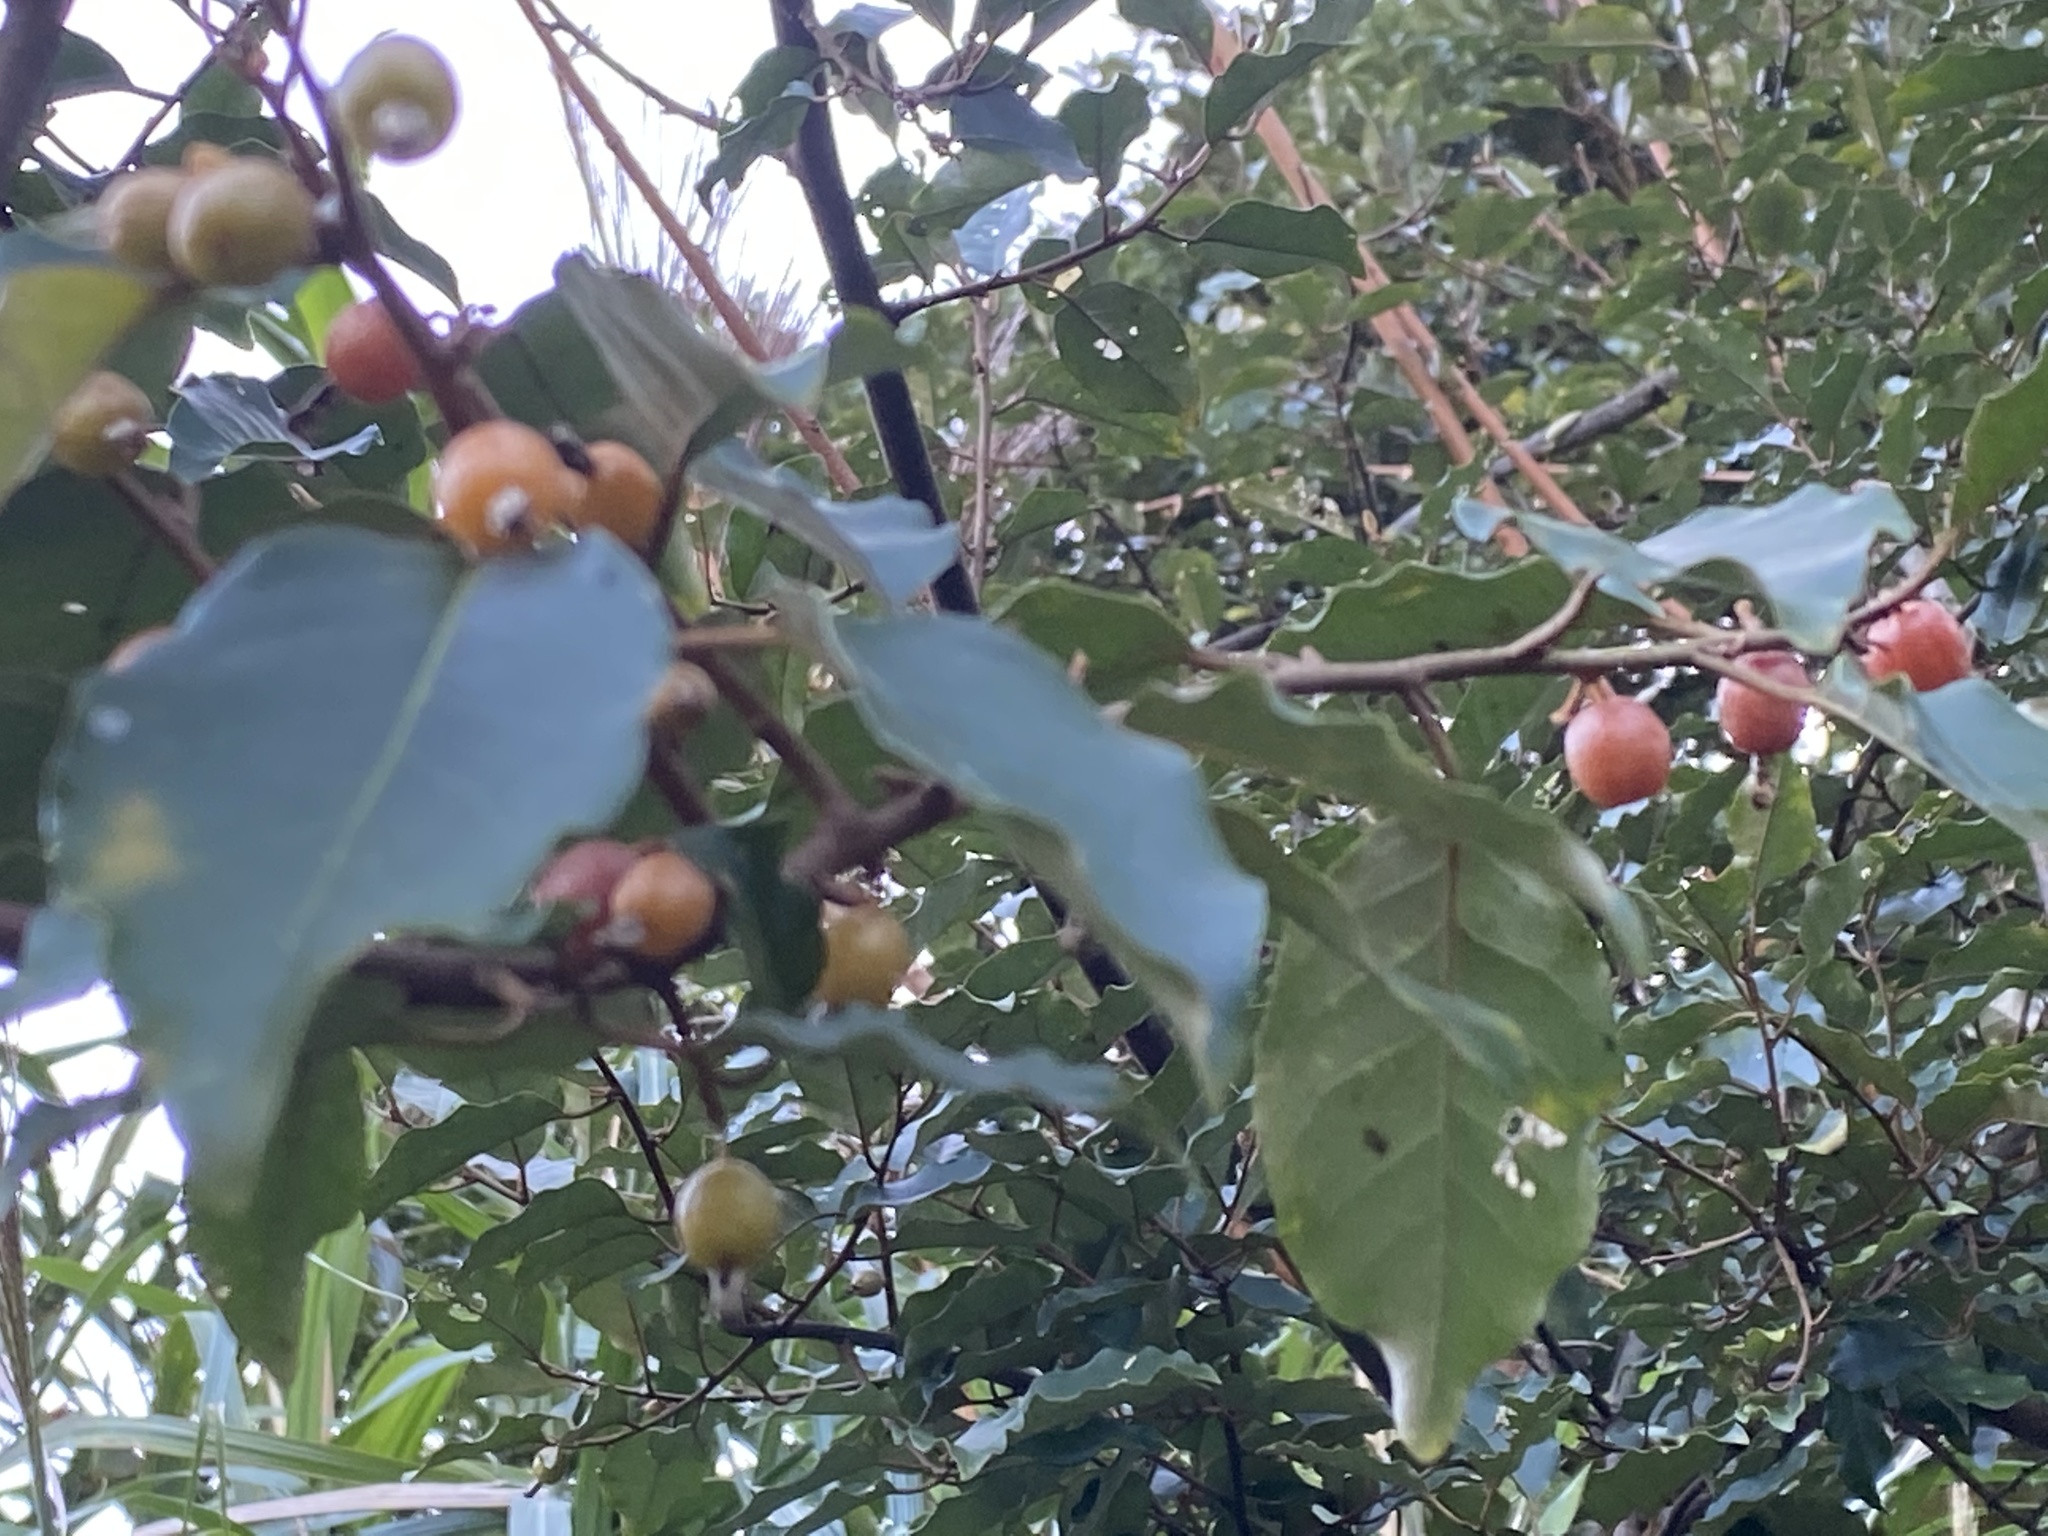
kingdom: Plantae
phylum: Tracheophyta
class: Magnoliopsida
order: Rosales
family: Elaeagnaceae
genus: Elaeagnus
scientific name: Elaeagnus umbellata
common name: Autumn olive
